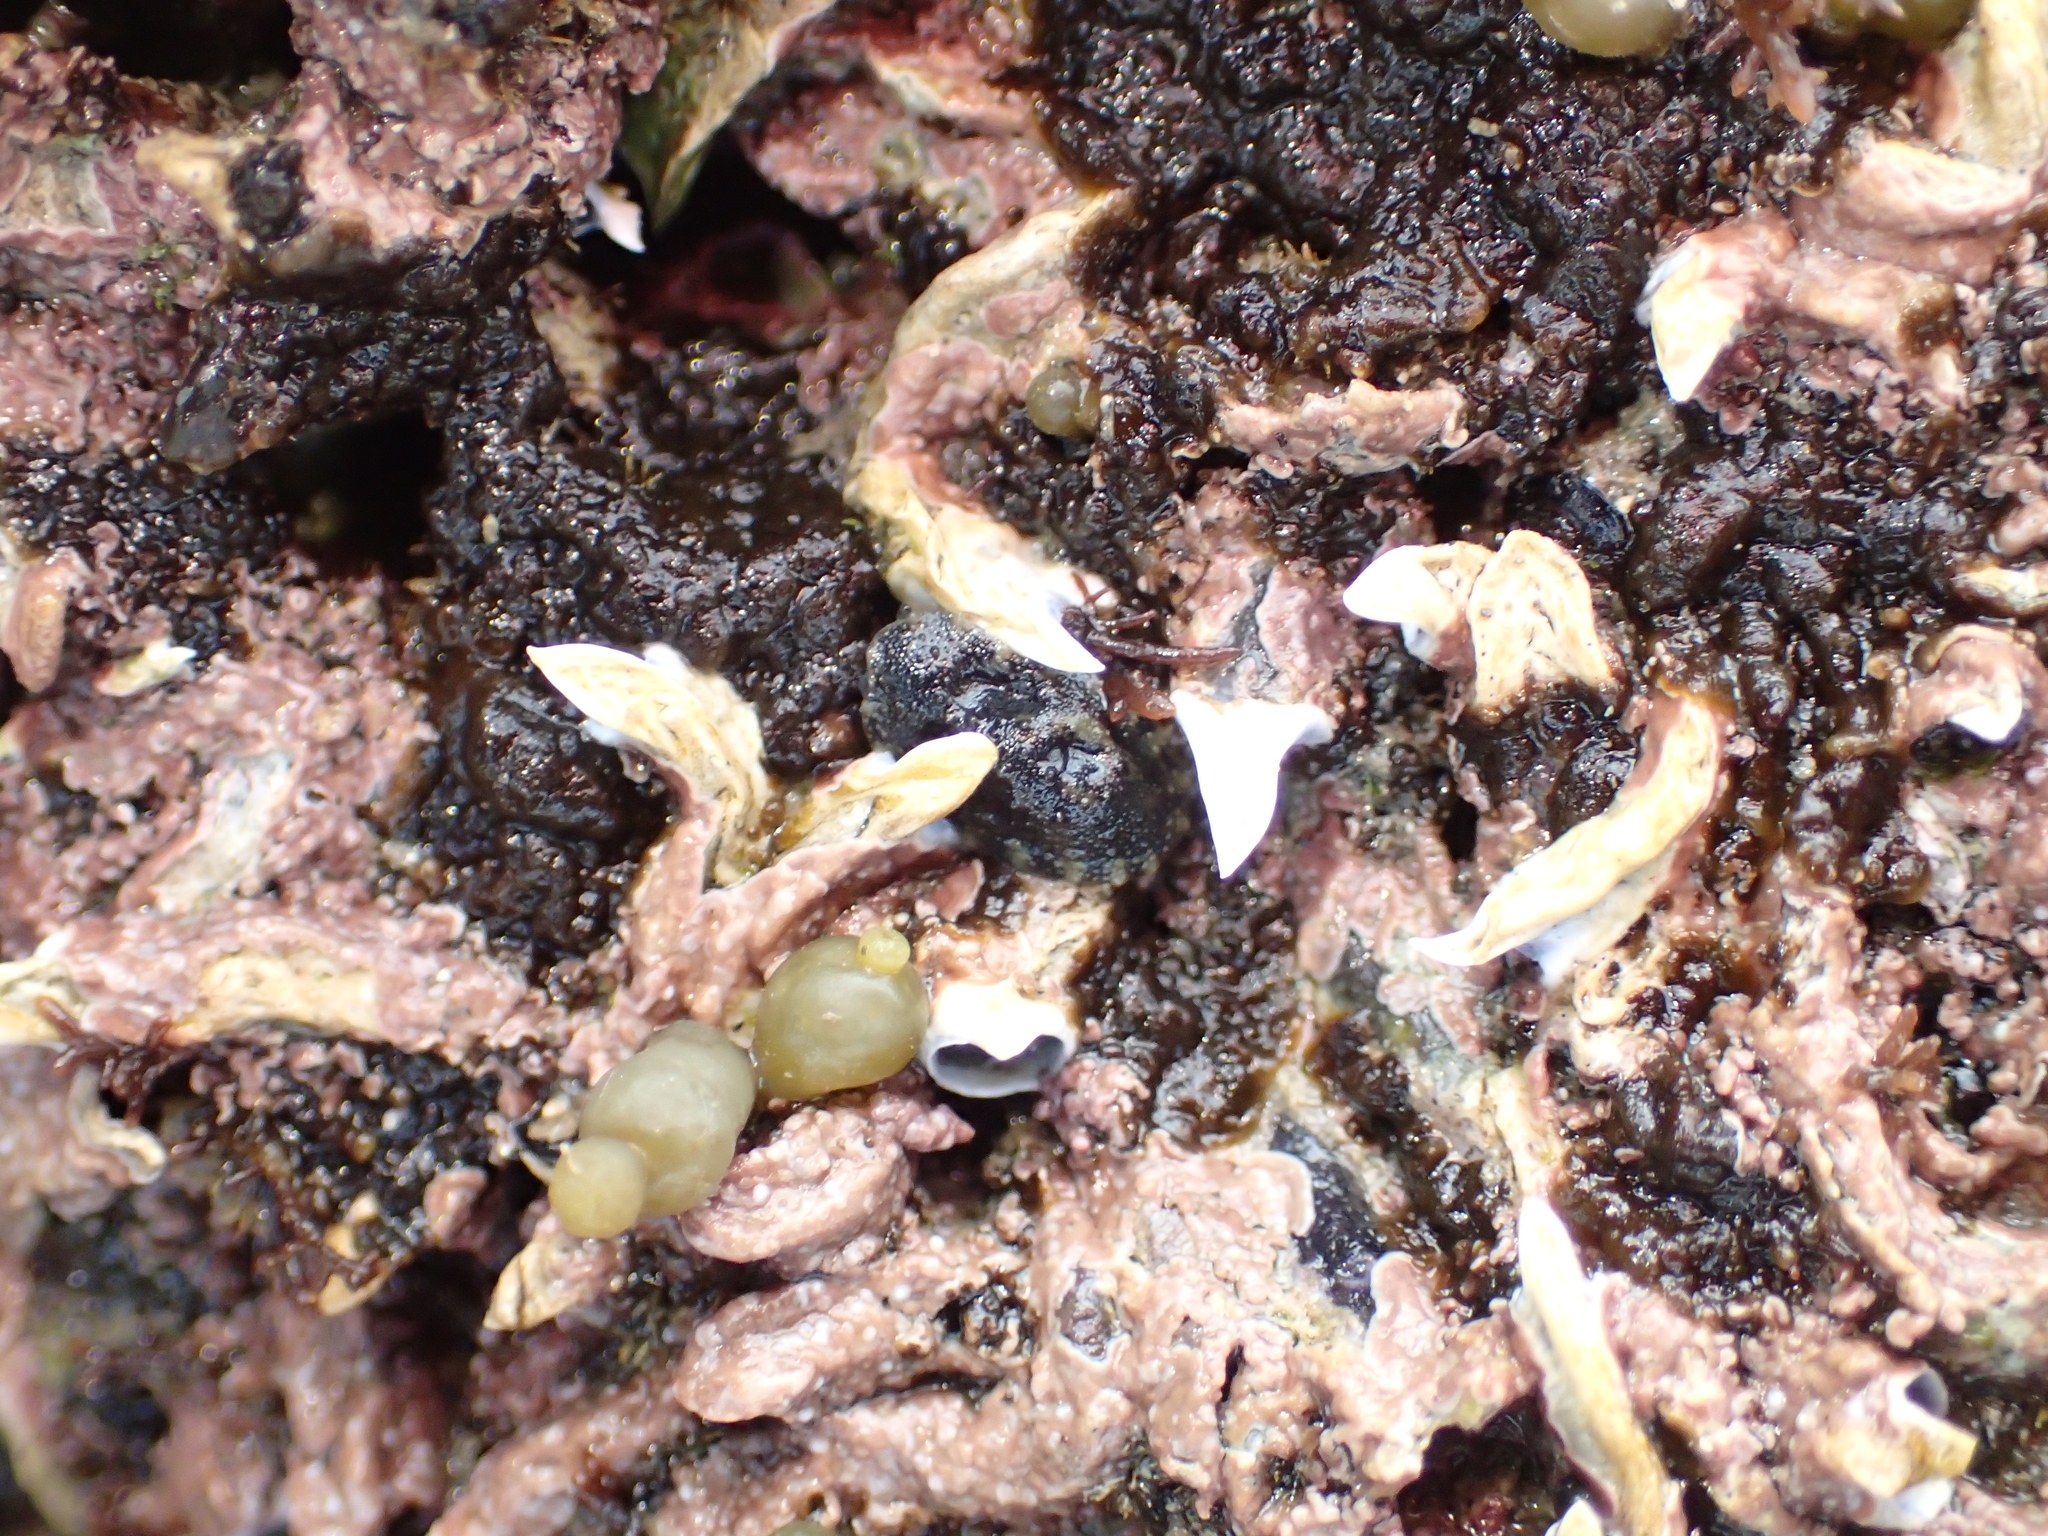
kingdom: Animalia
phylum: Annelida
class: Polychaeta
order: Sabellida
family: Serpulidae
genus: Spirobranchus
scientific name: Spirobranchus cariniferus
